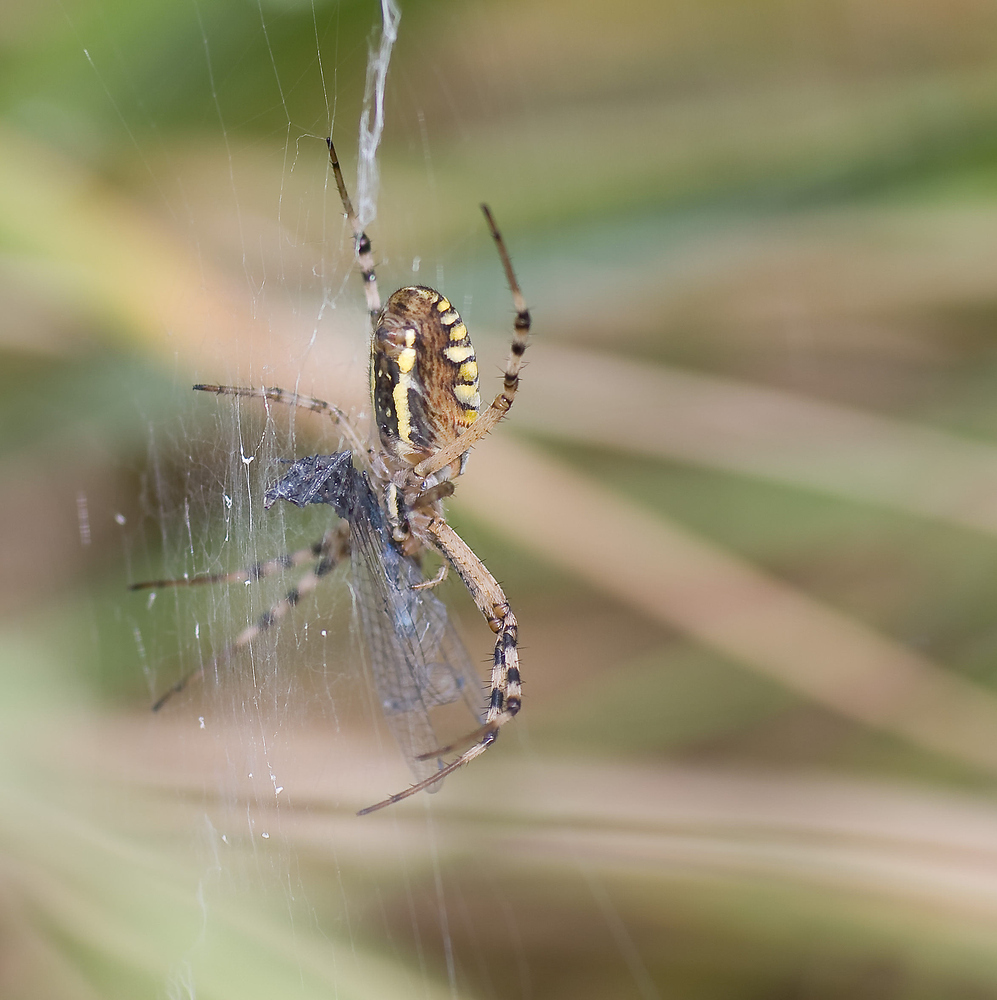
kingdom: Animalia
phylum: Arthropoda
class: Arachnida
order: Araneae
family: Araneidae
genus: Argiope
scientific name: Argiope bruennichi
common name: Wasp spider
